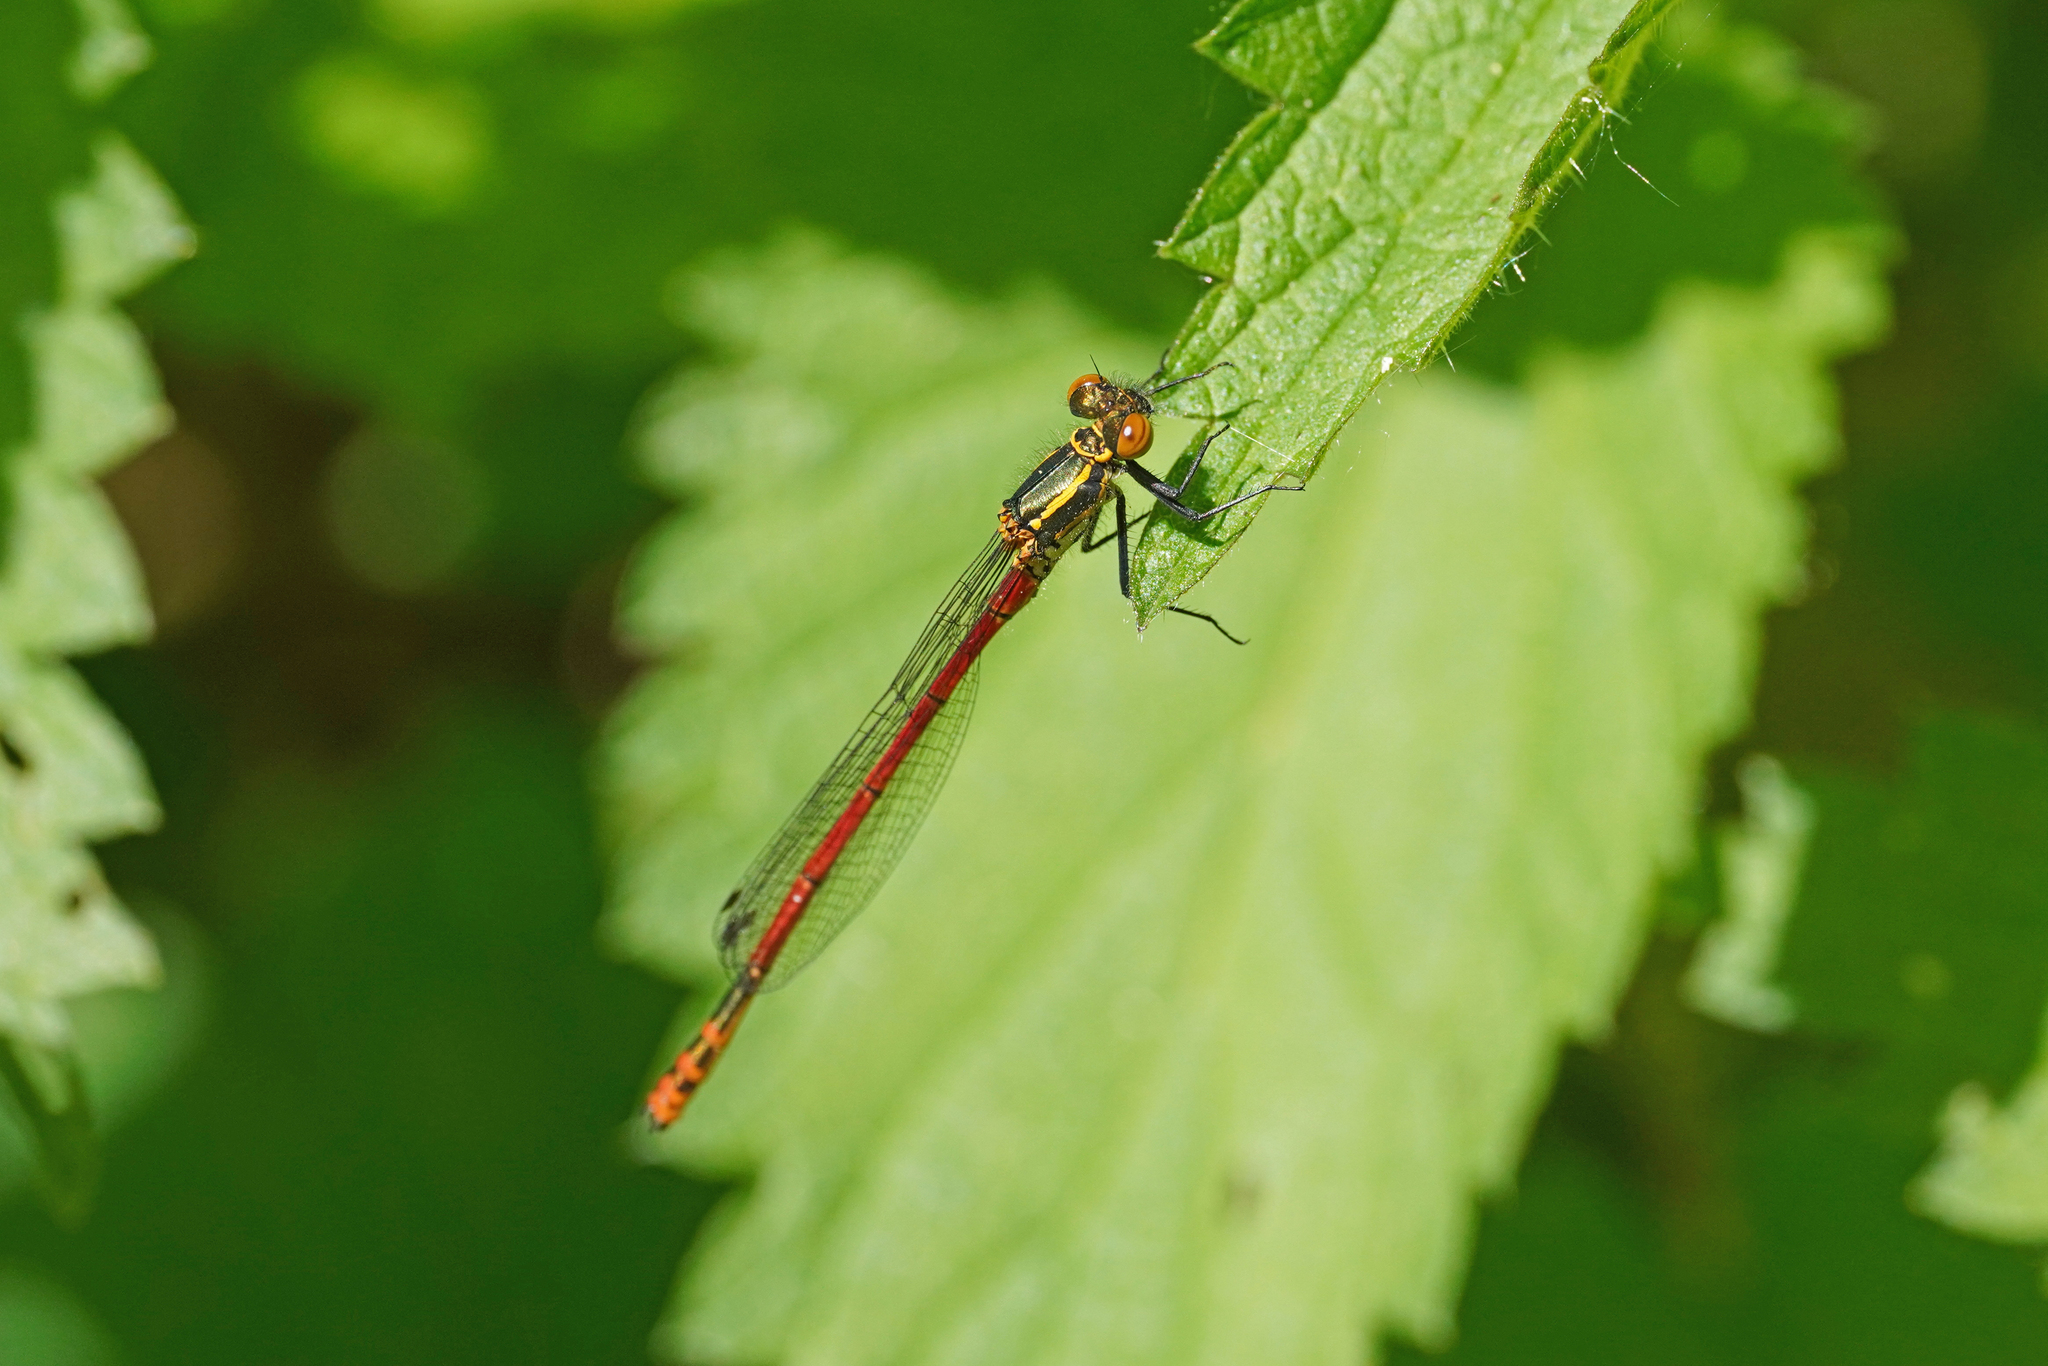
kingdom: Animalia
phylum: Arthropoda
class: Insecta
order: Odonata
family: Coenagrionidae
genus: Pyrrhosoma
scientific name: Pyrrhosoma nymphula
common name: Large red damsel
